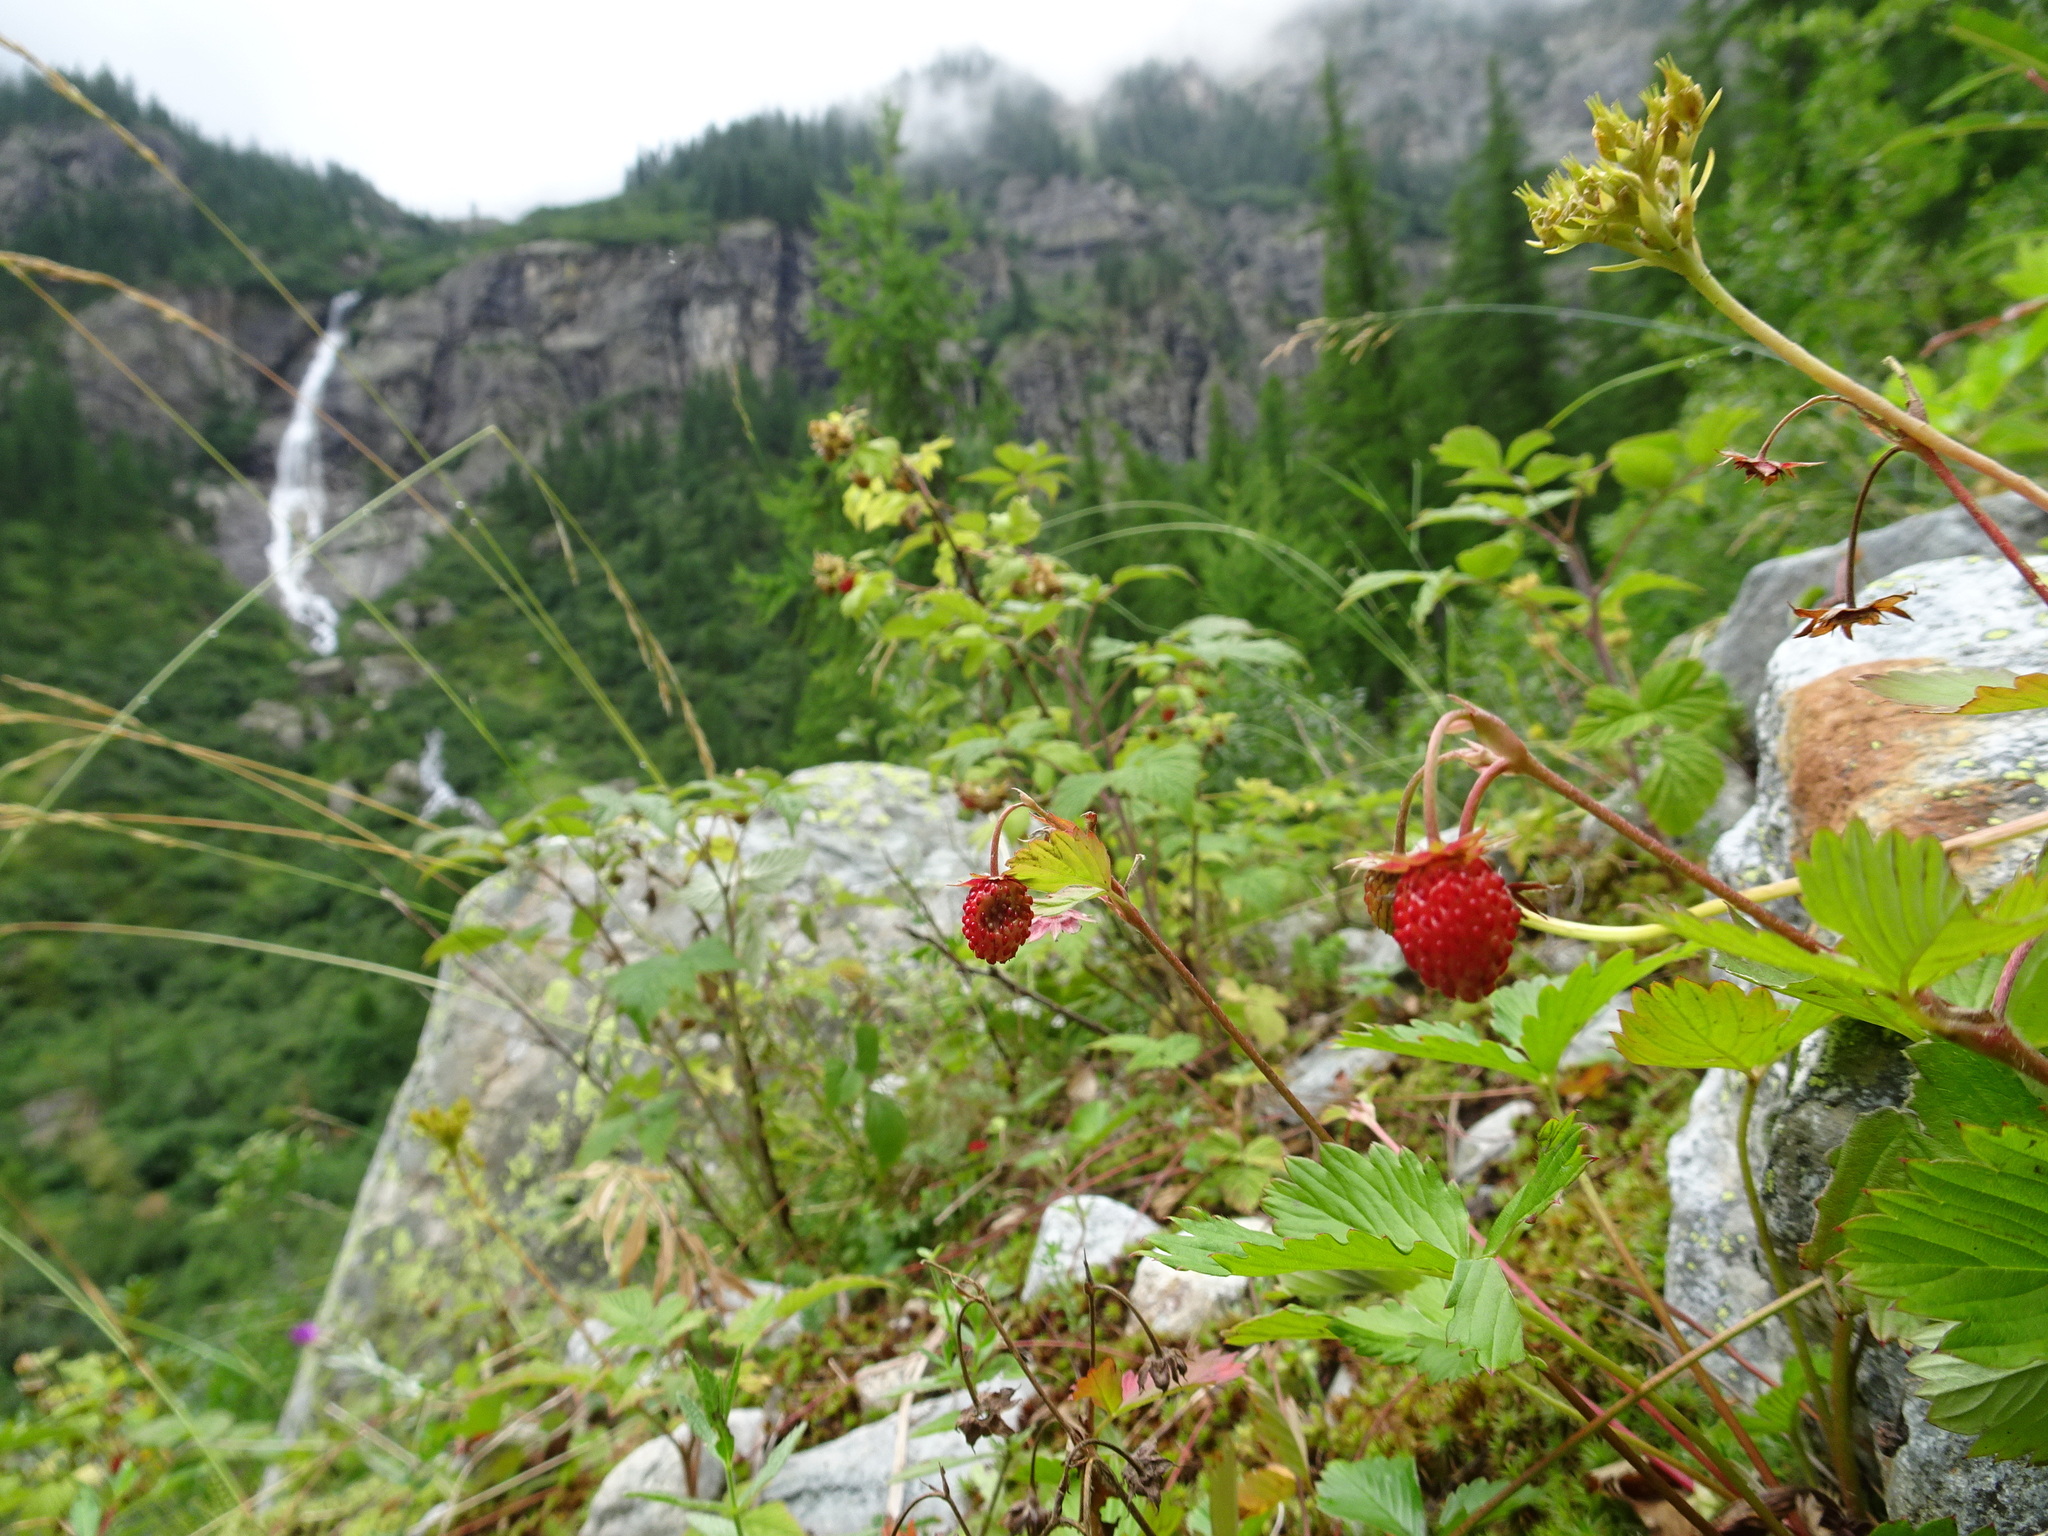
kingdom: Plantae
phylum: Tracheophyta
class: Magnoliopsida
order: Rosales
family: Rosaceae
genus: Fragaria
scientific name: Fragaria vesca
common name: Wild strawberry
